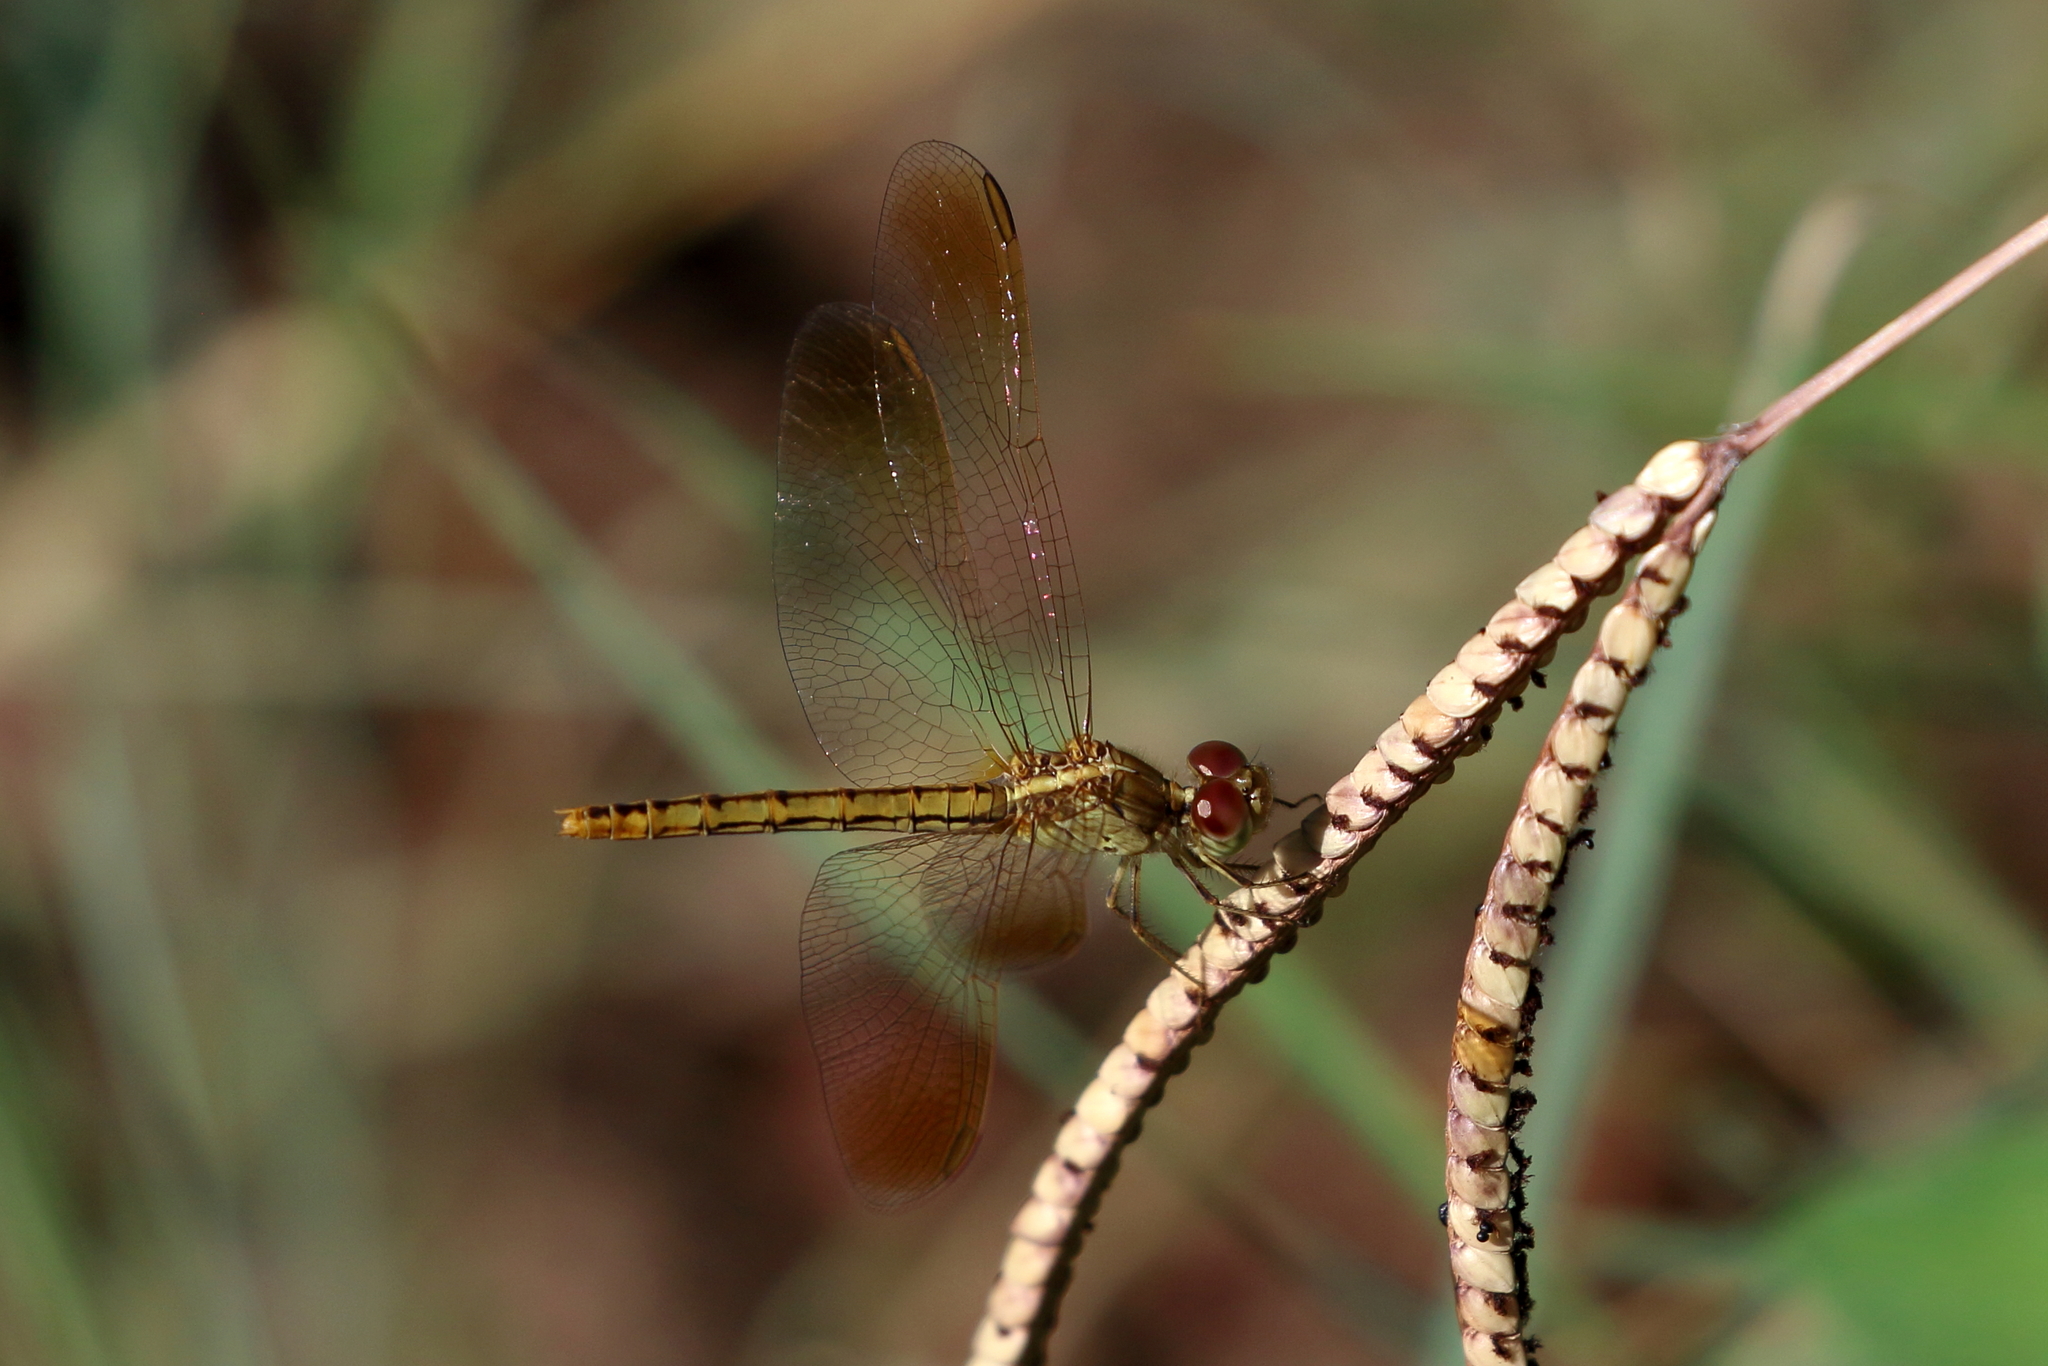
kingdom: Animalia
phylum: Arthropoda
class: Insecta
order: Odonata
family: Libellulidae
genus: Diplacodes
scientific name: Diplacodes haematodes
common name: Scarlet percher
